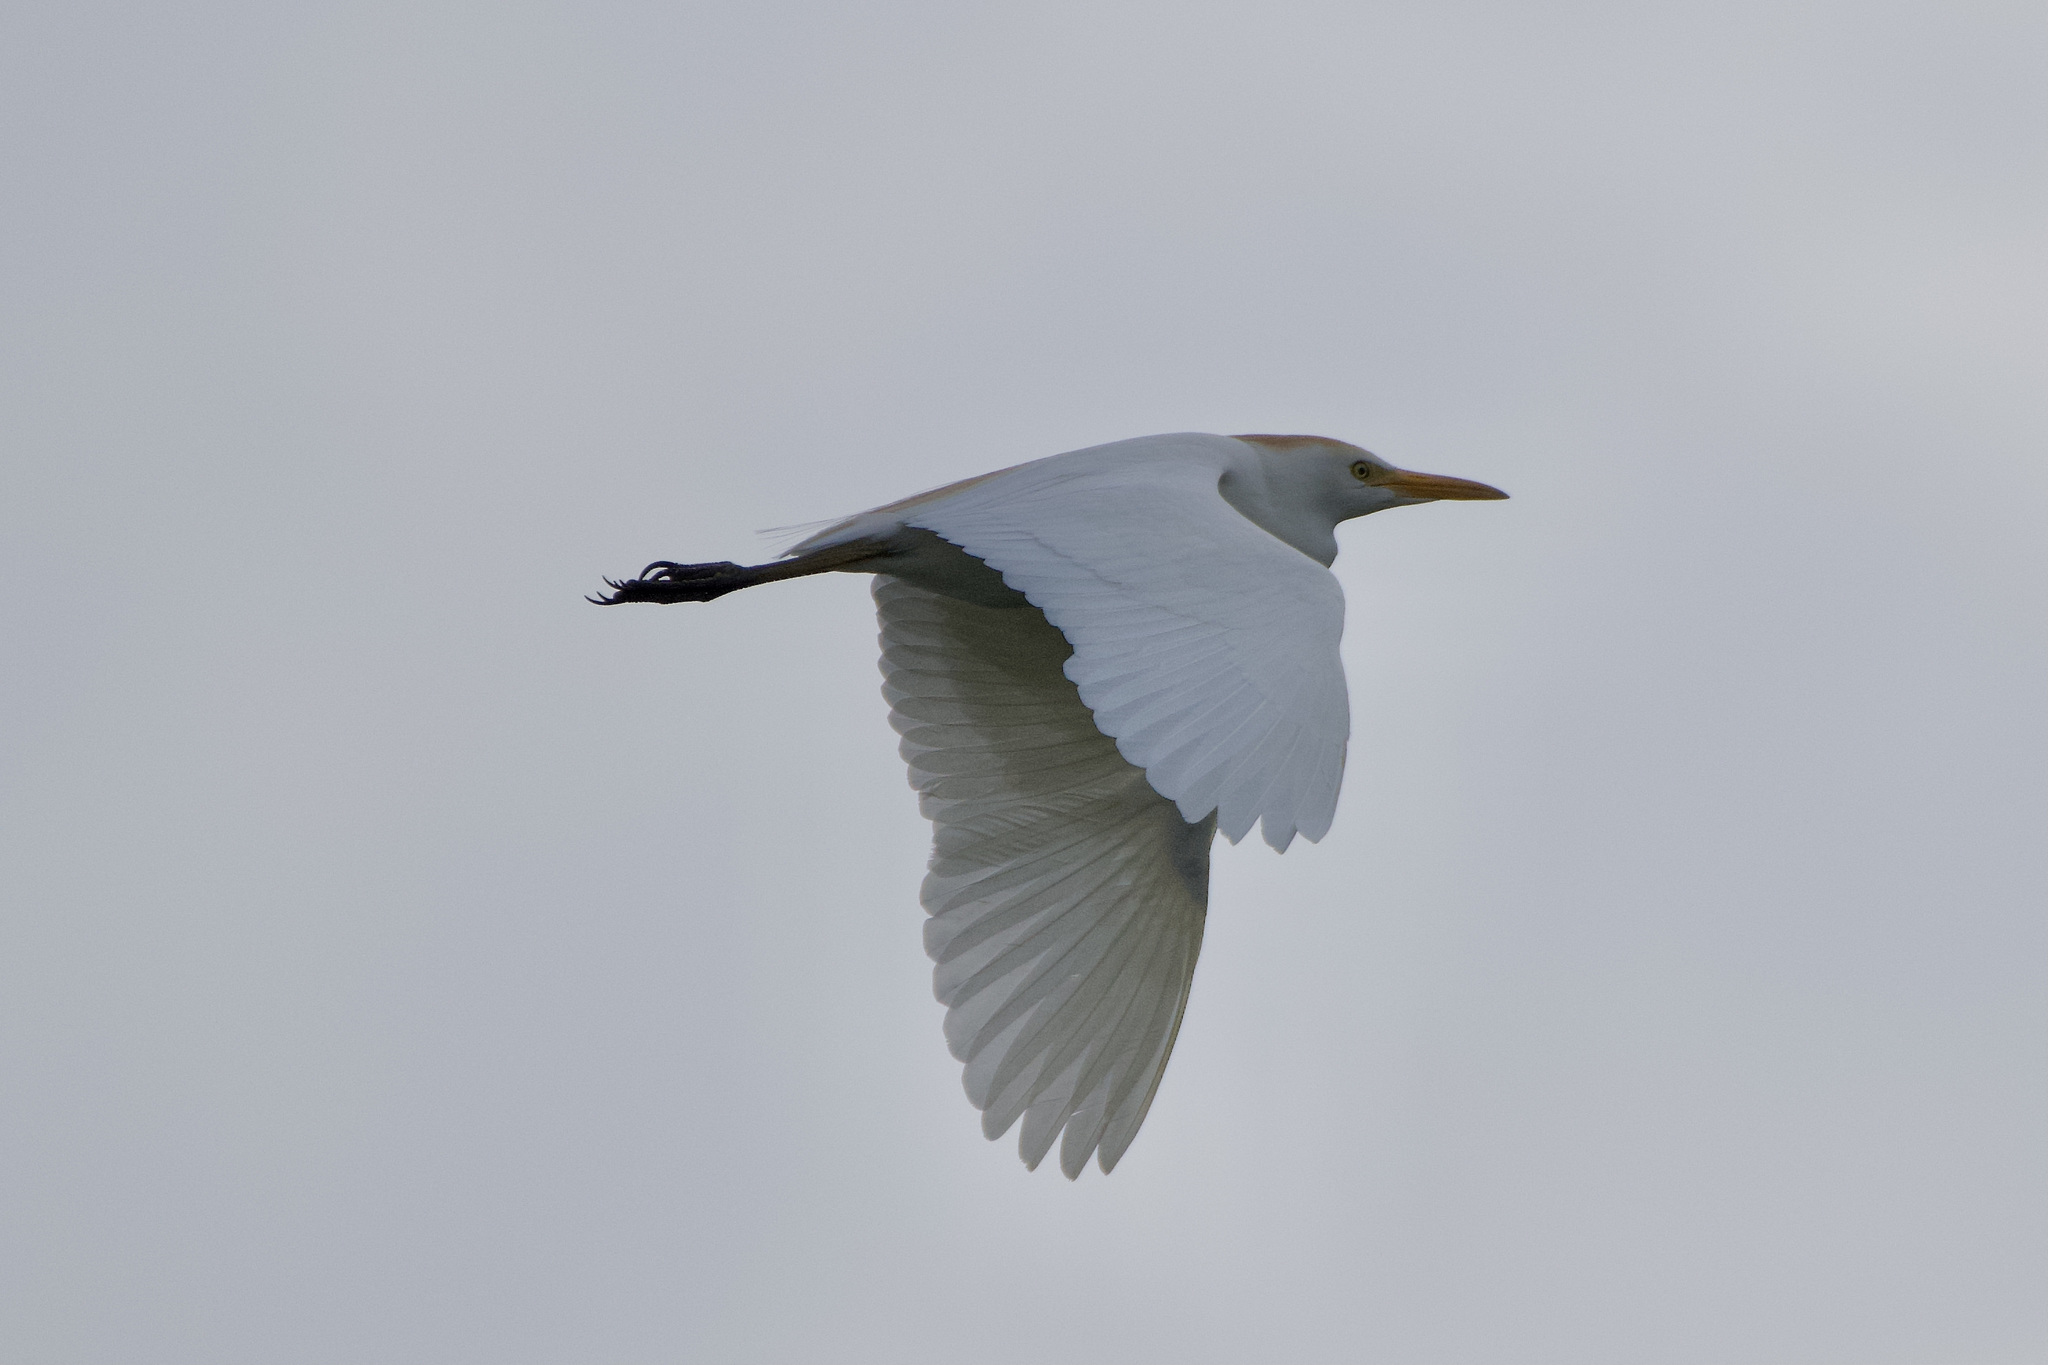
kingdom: Animalia
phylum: Chordata
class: Aves
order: Pelecaniformes
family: Ardeidae
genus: Bubulcus
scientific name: Bubulcus ibis
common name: Cattle egret
